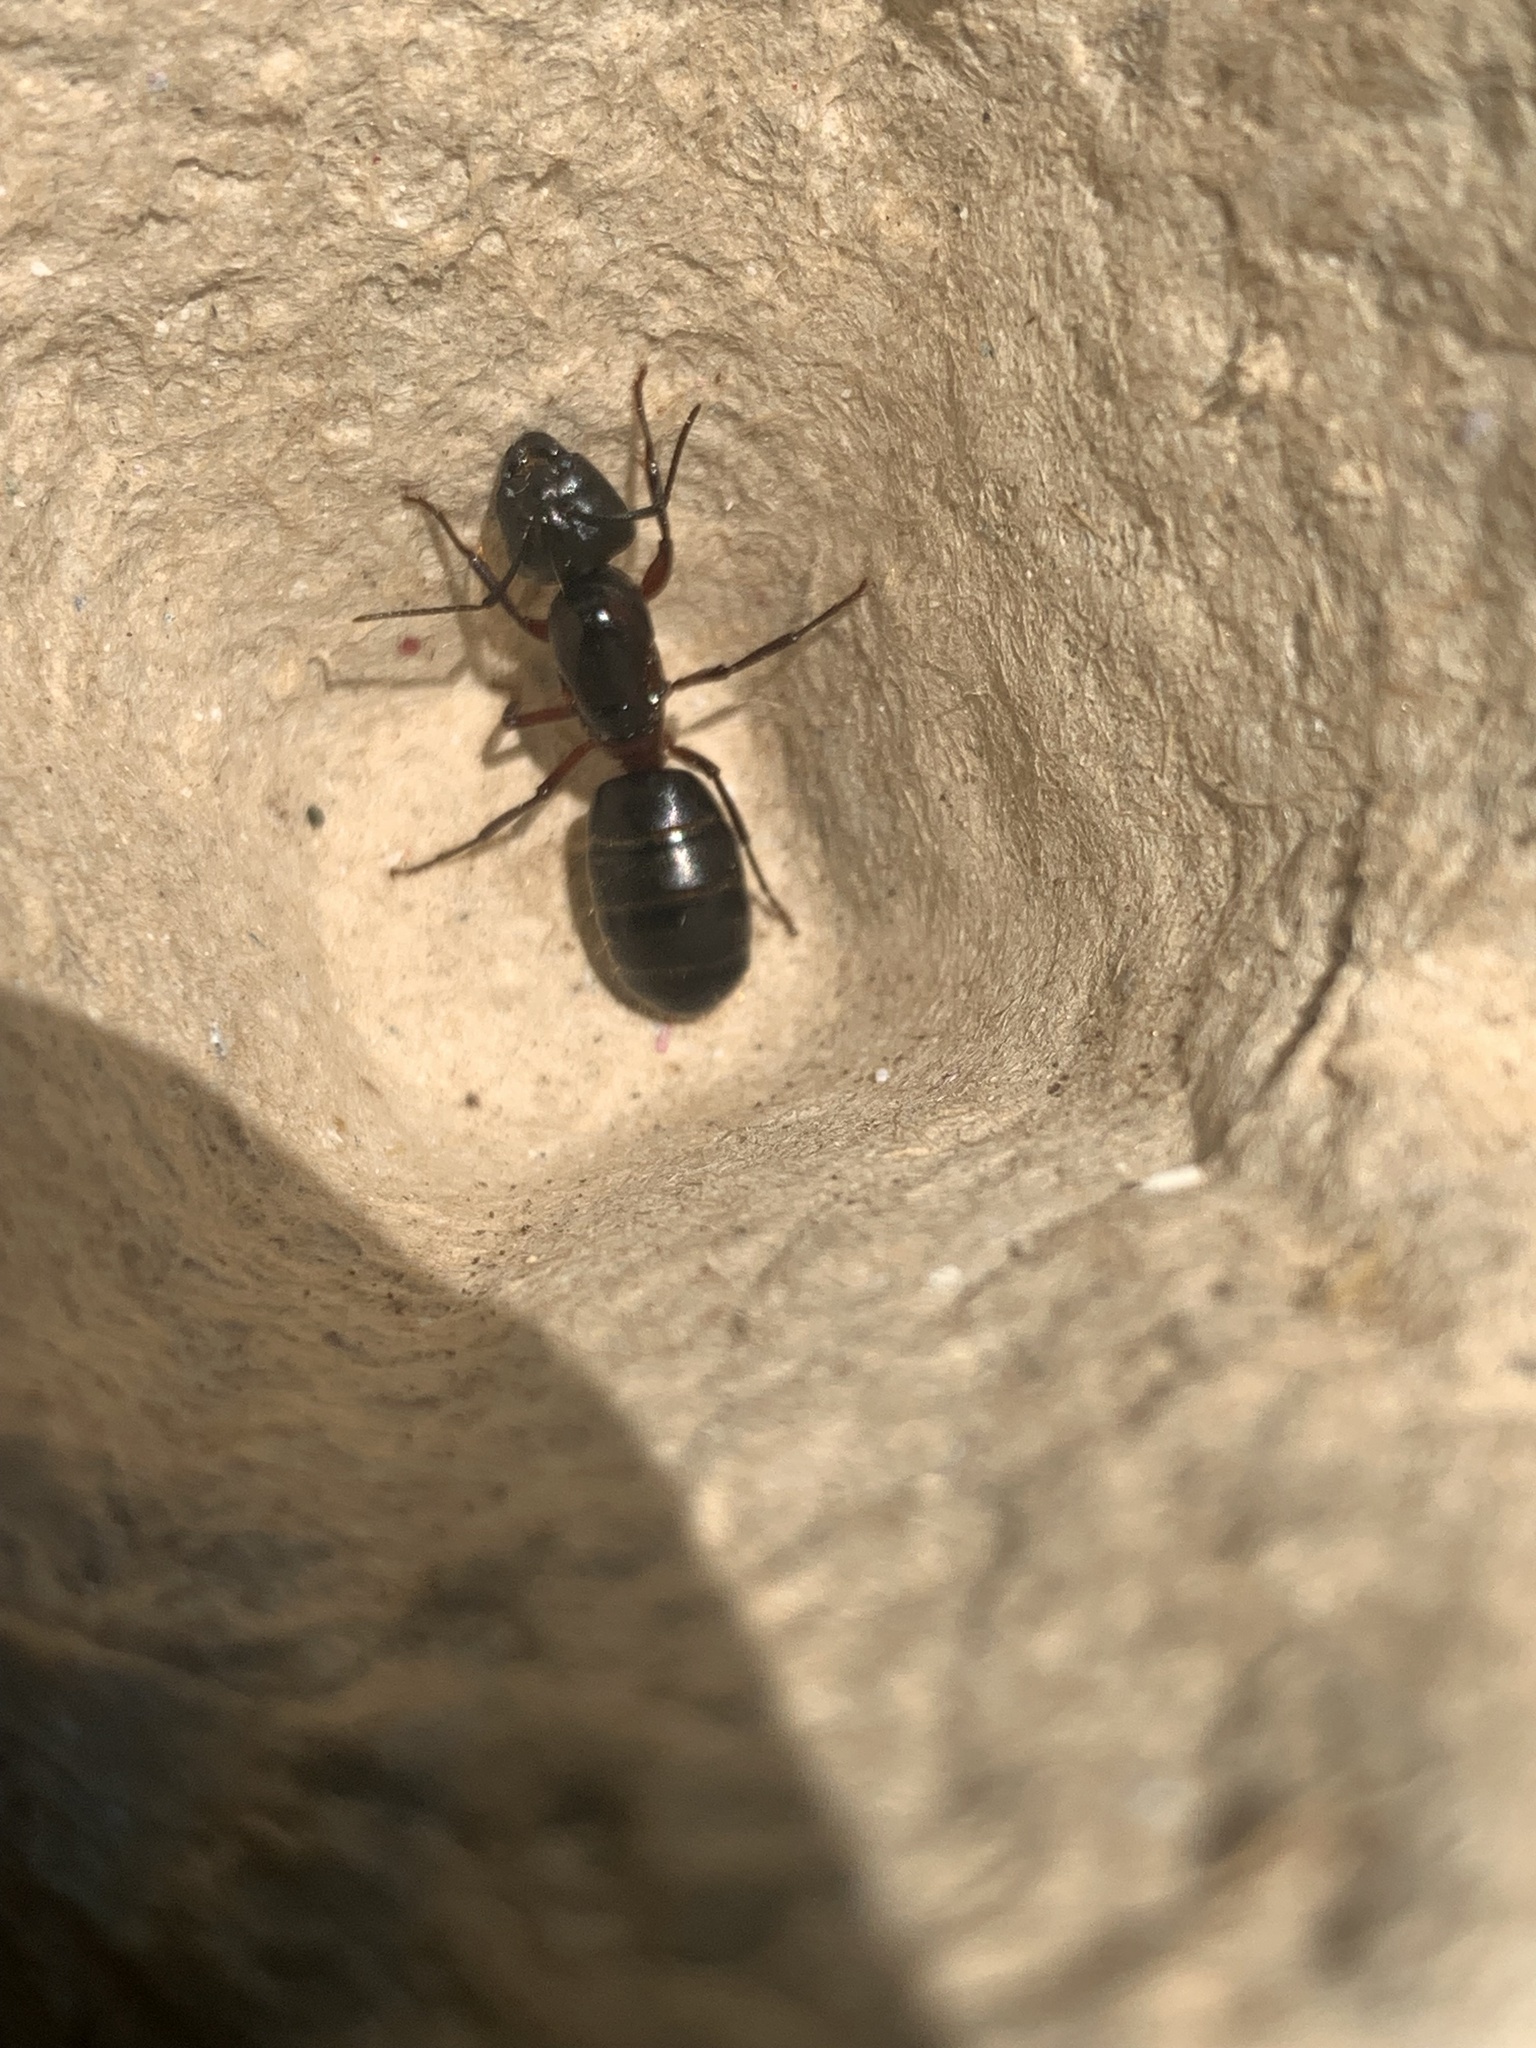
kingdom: Animalia
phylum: Arthropoda
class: Insecta
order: Hymenoptera
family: Formicidae
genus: Camponotus
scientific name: Camponotus herculeanus
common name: Hercules ant
